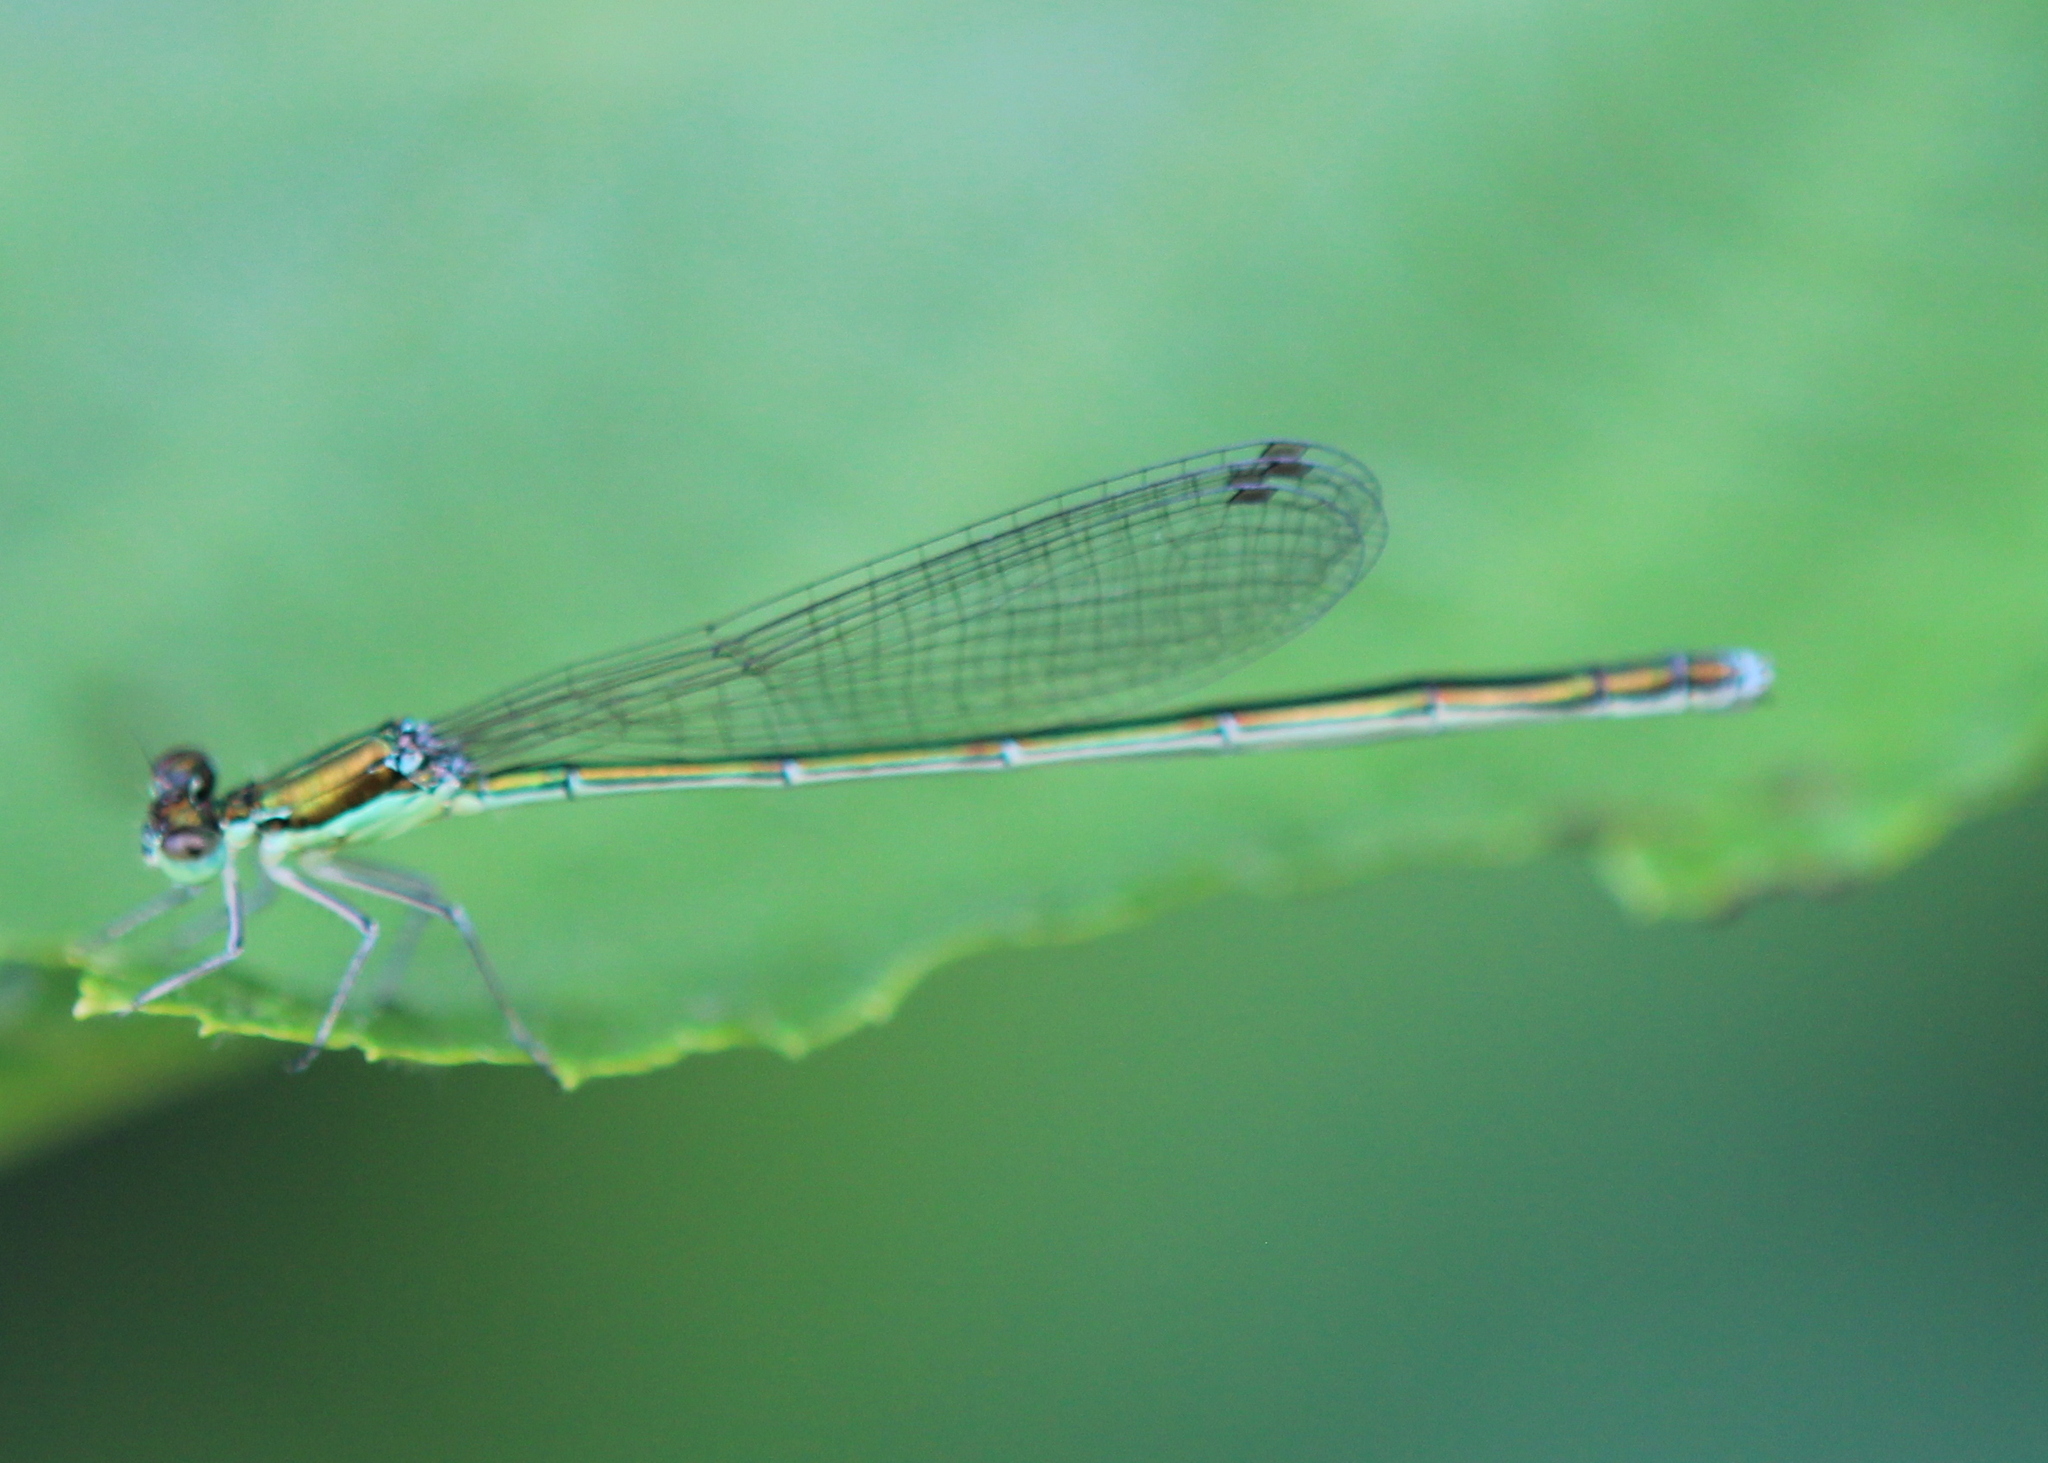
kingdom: Animalia
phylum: Arthropoda
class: Insecta
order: Odonata
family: Coenagrionidae
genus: Nehalennia
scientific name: Nehalennia irene
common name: Sedge sprite
